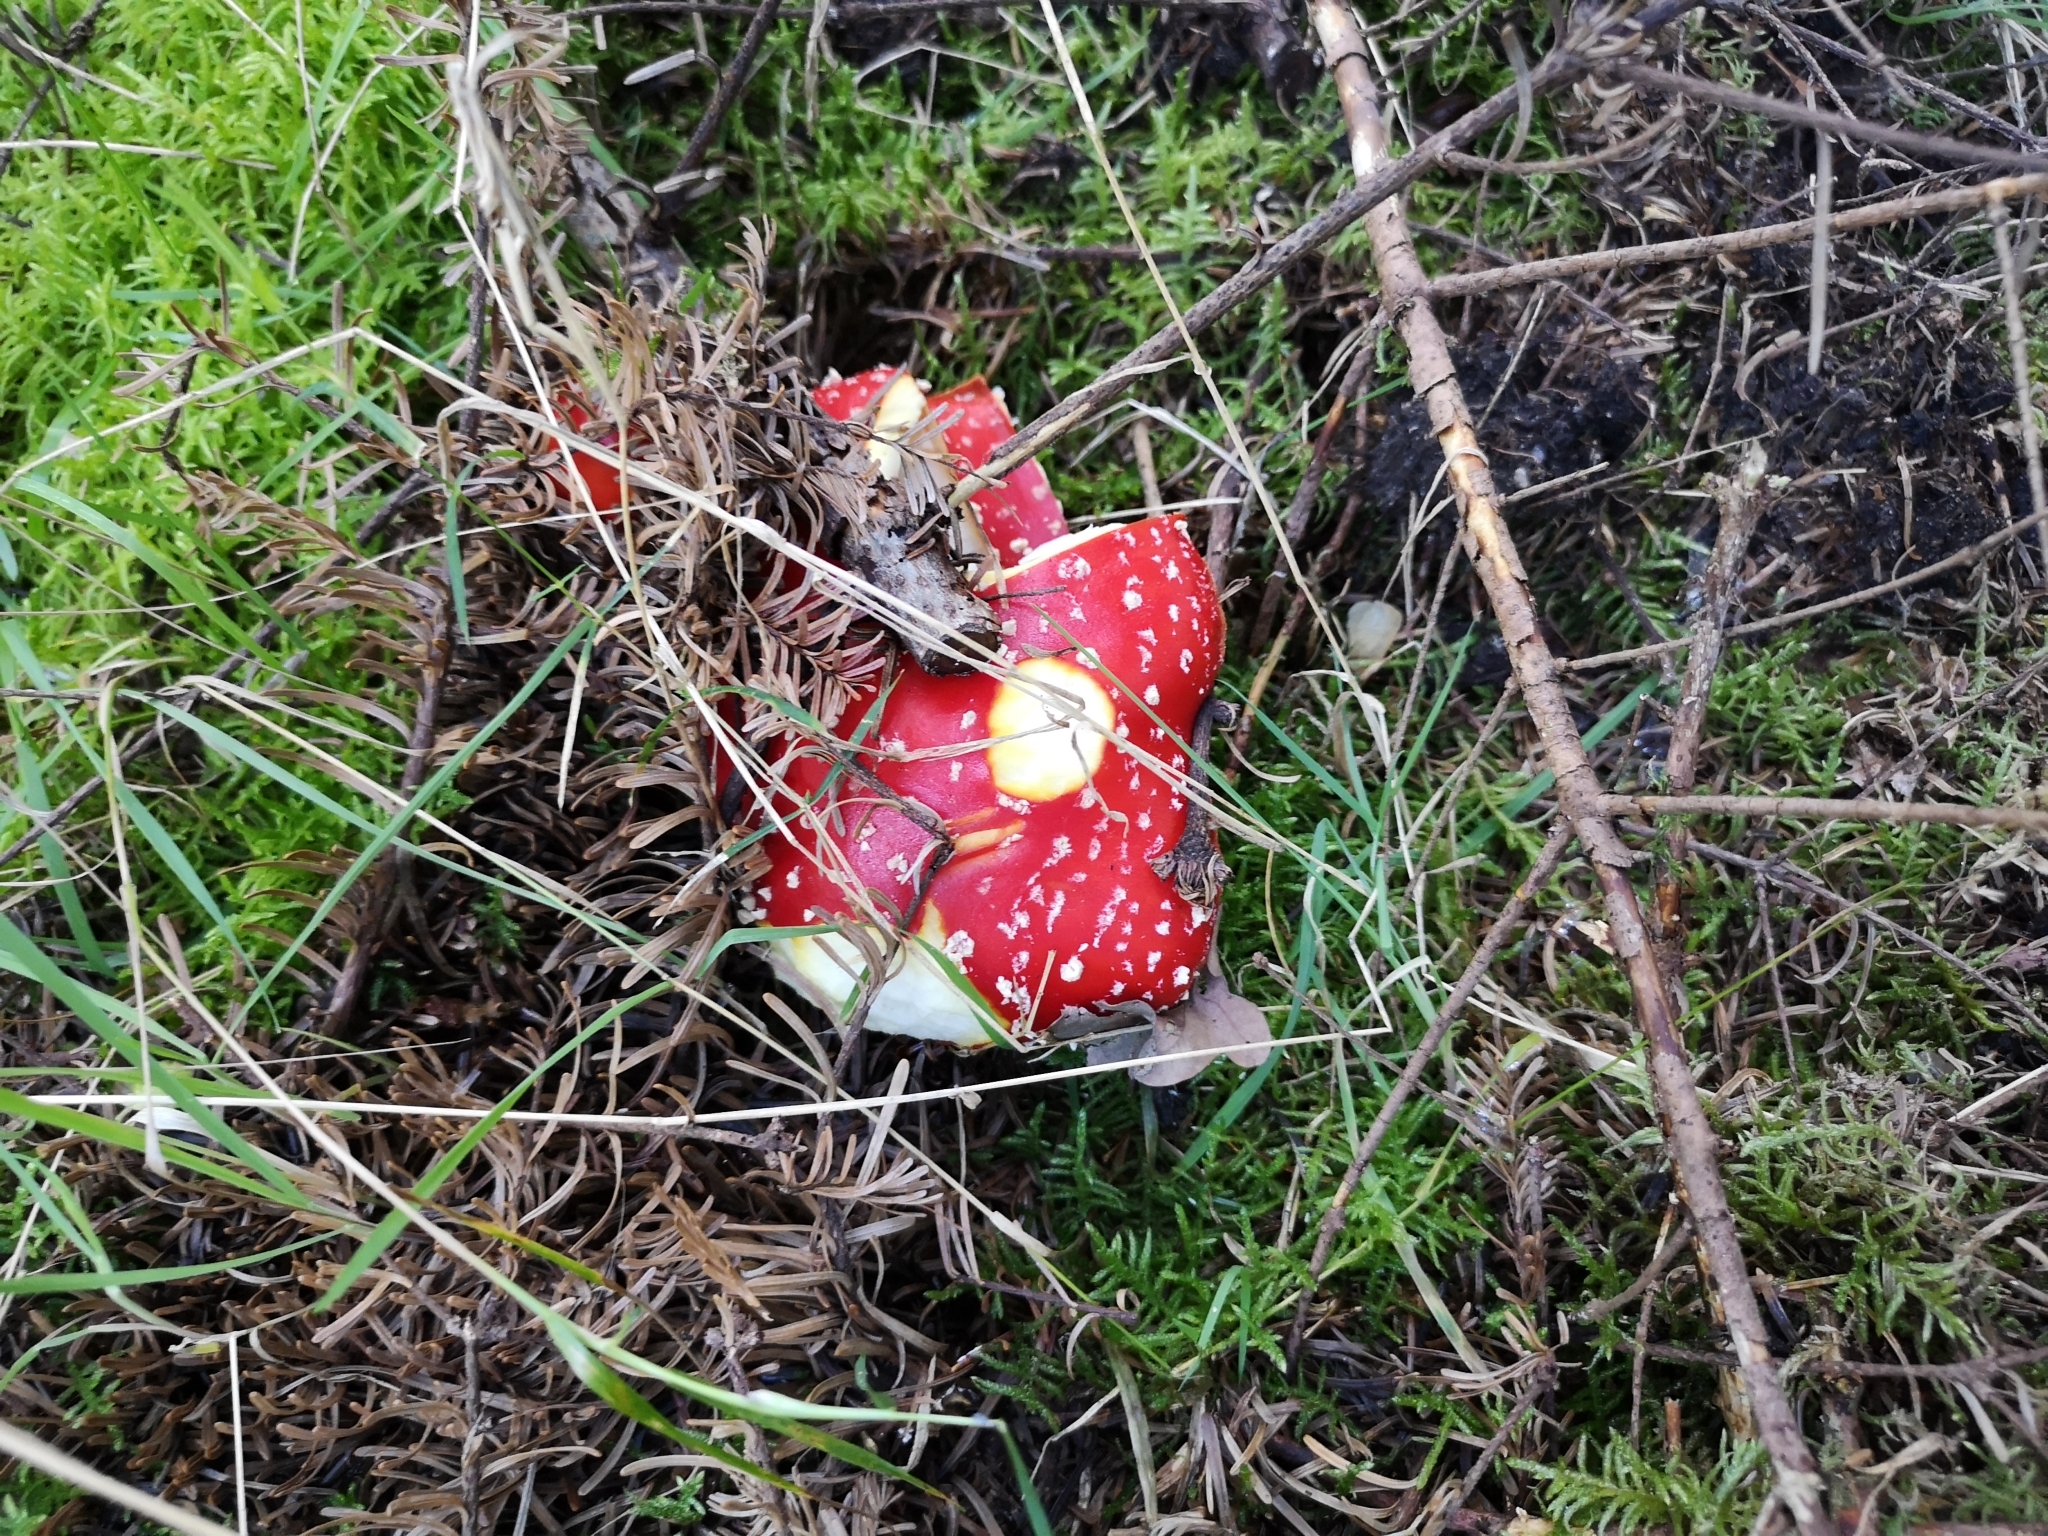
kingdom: Fungi
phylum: Basidiomycota
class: Agaricomycetes
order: Agaricales
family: Amanitaceae
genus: Amanita
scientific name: Amanita muscaria
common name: Fly agaric
